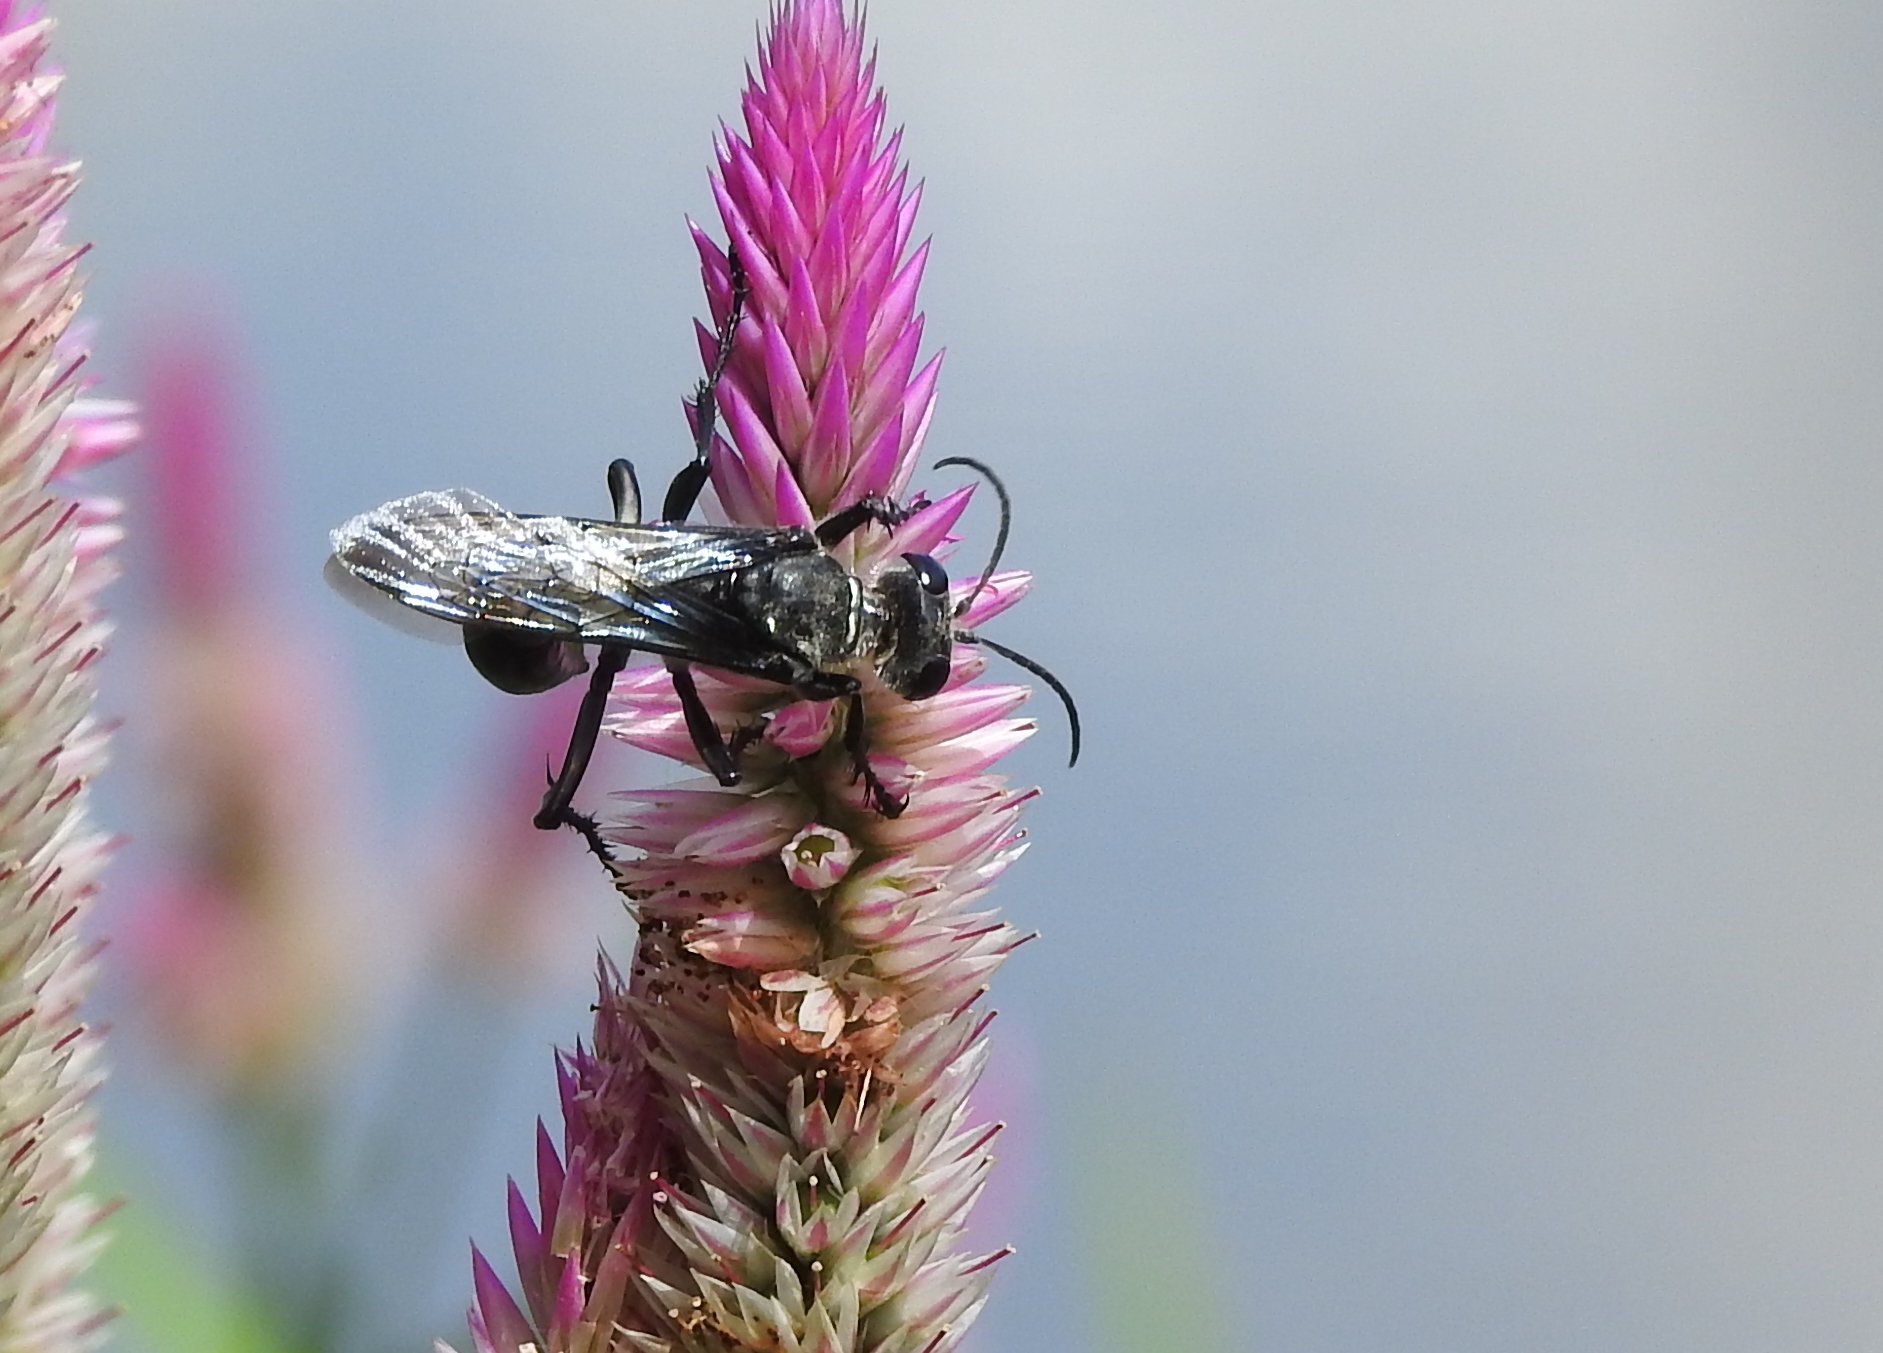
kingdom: Animalia
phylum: Arthropoda
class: Insecta
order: Hymenoptera
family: Sphecidae
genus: Sphex
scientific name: Sphex argentatus
